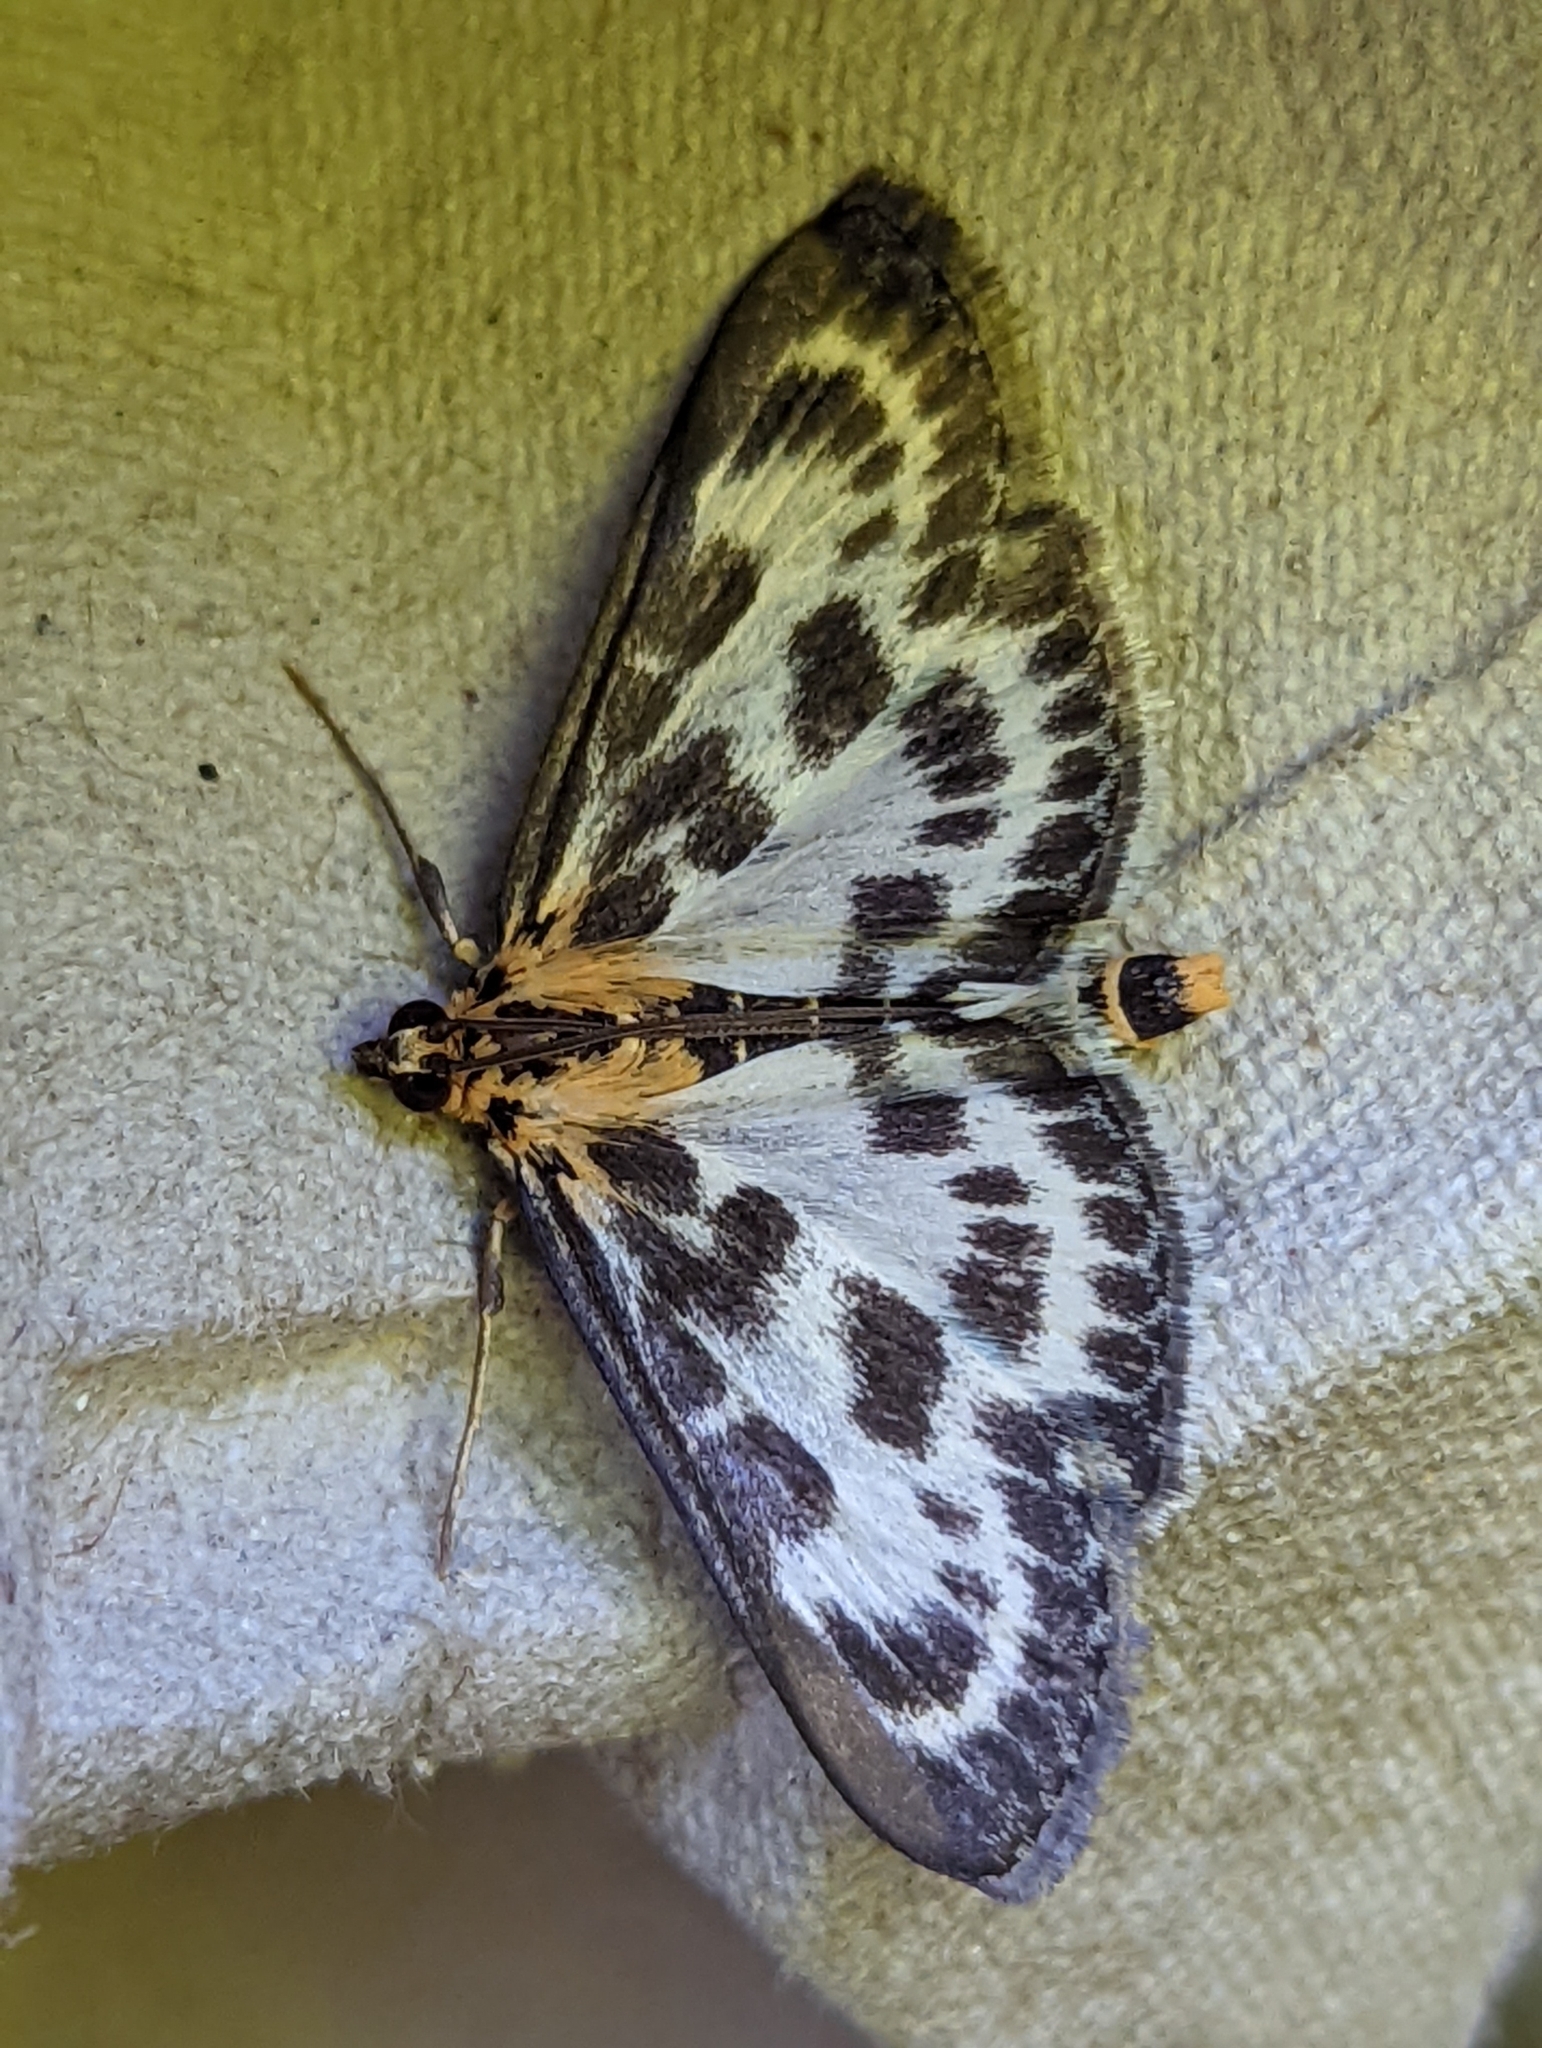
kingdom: Animalia
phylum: Arthropoda
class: Insecta
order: Lepidoptera
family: Crambidae
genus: Anania
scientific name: Anania hortulata
